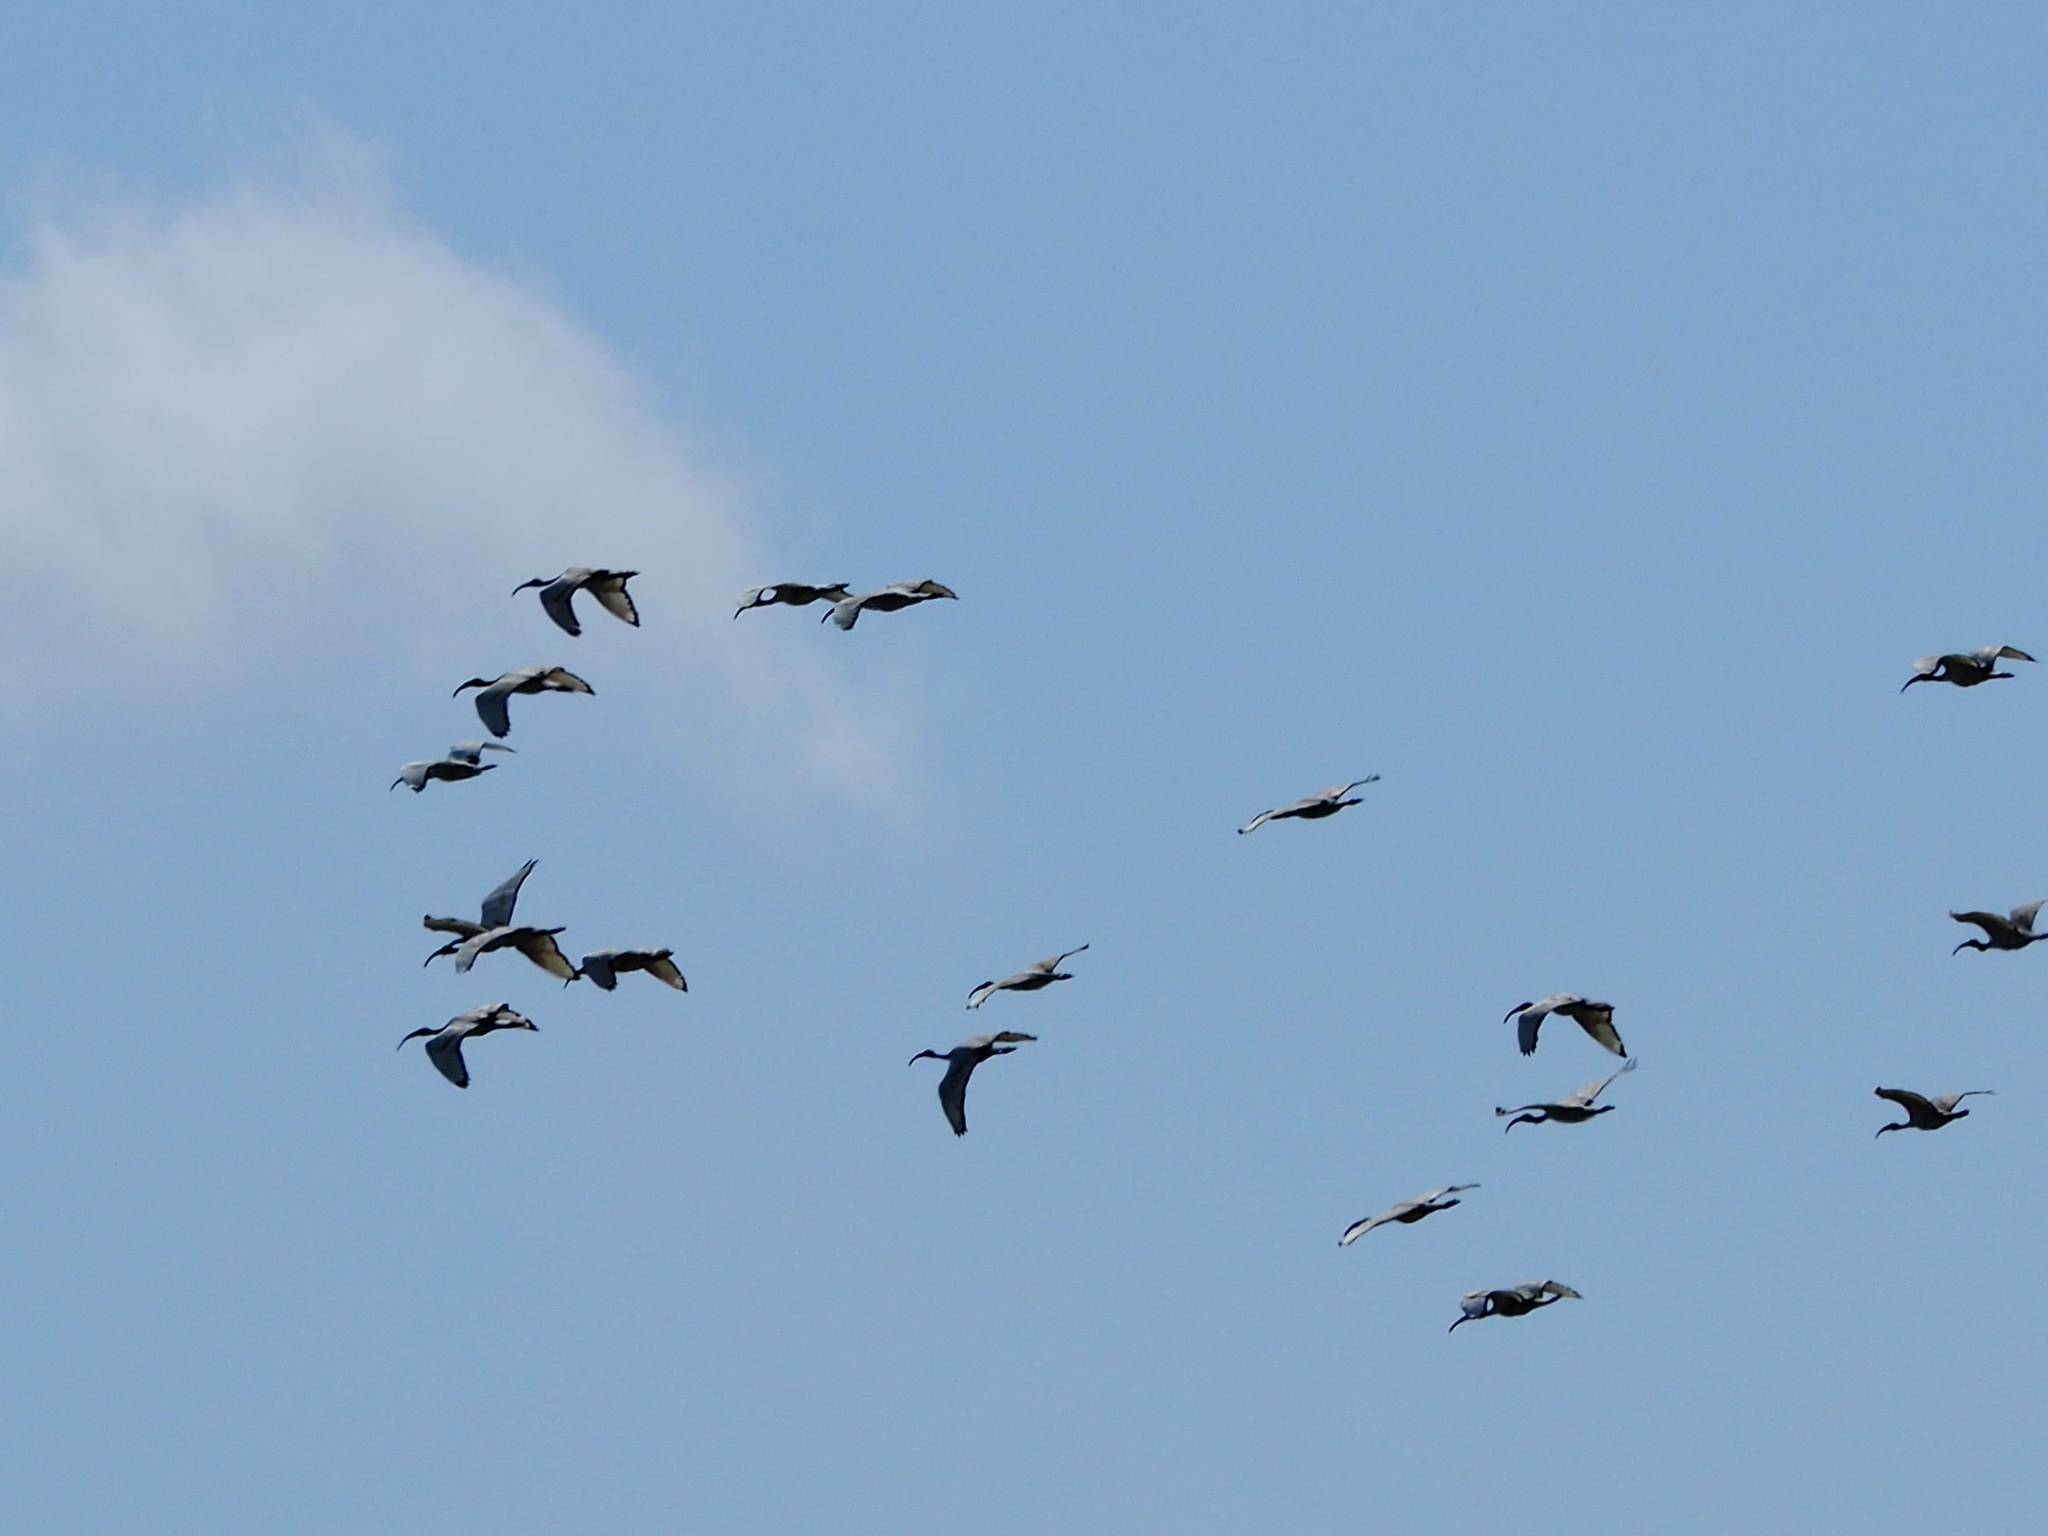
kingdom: Animalia
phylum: Chordata
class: Aves
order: Pelecaniformes
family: Threskiornithidae
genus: Threskiornis
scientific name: Threskiornis aethiopicus
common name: Sacred ibis
